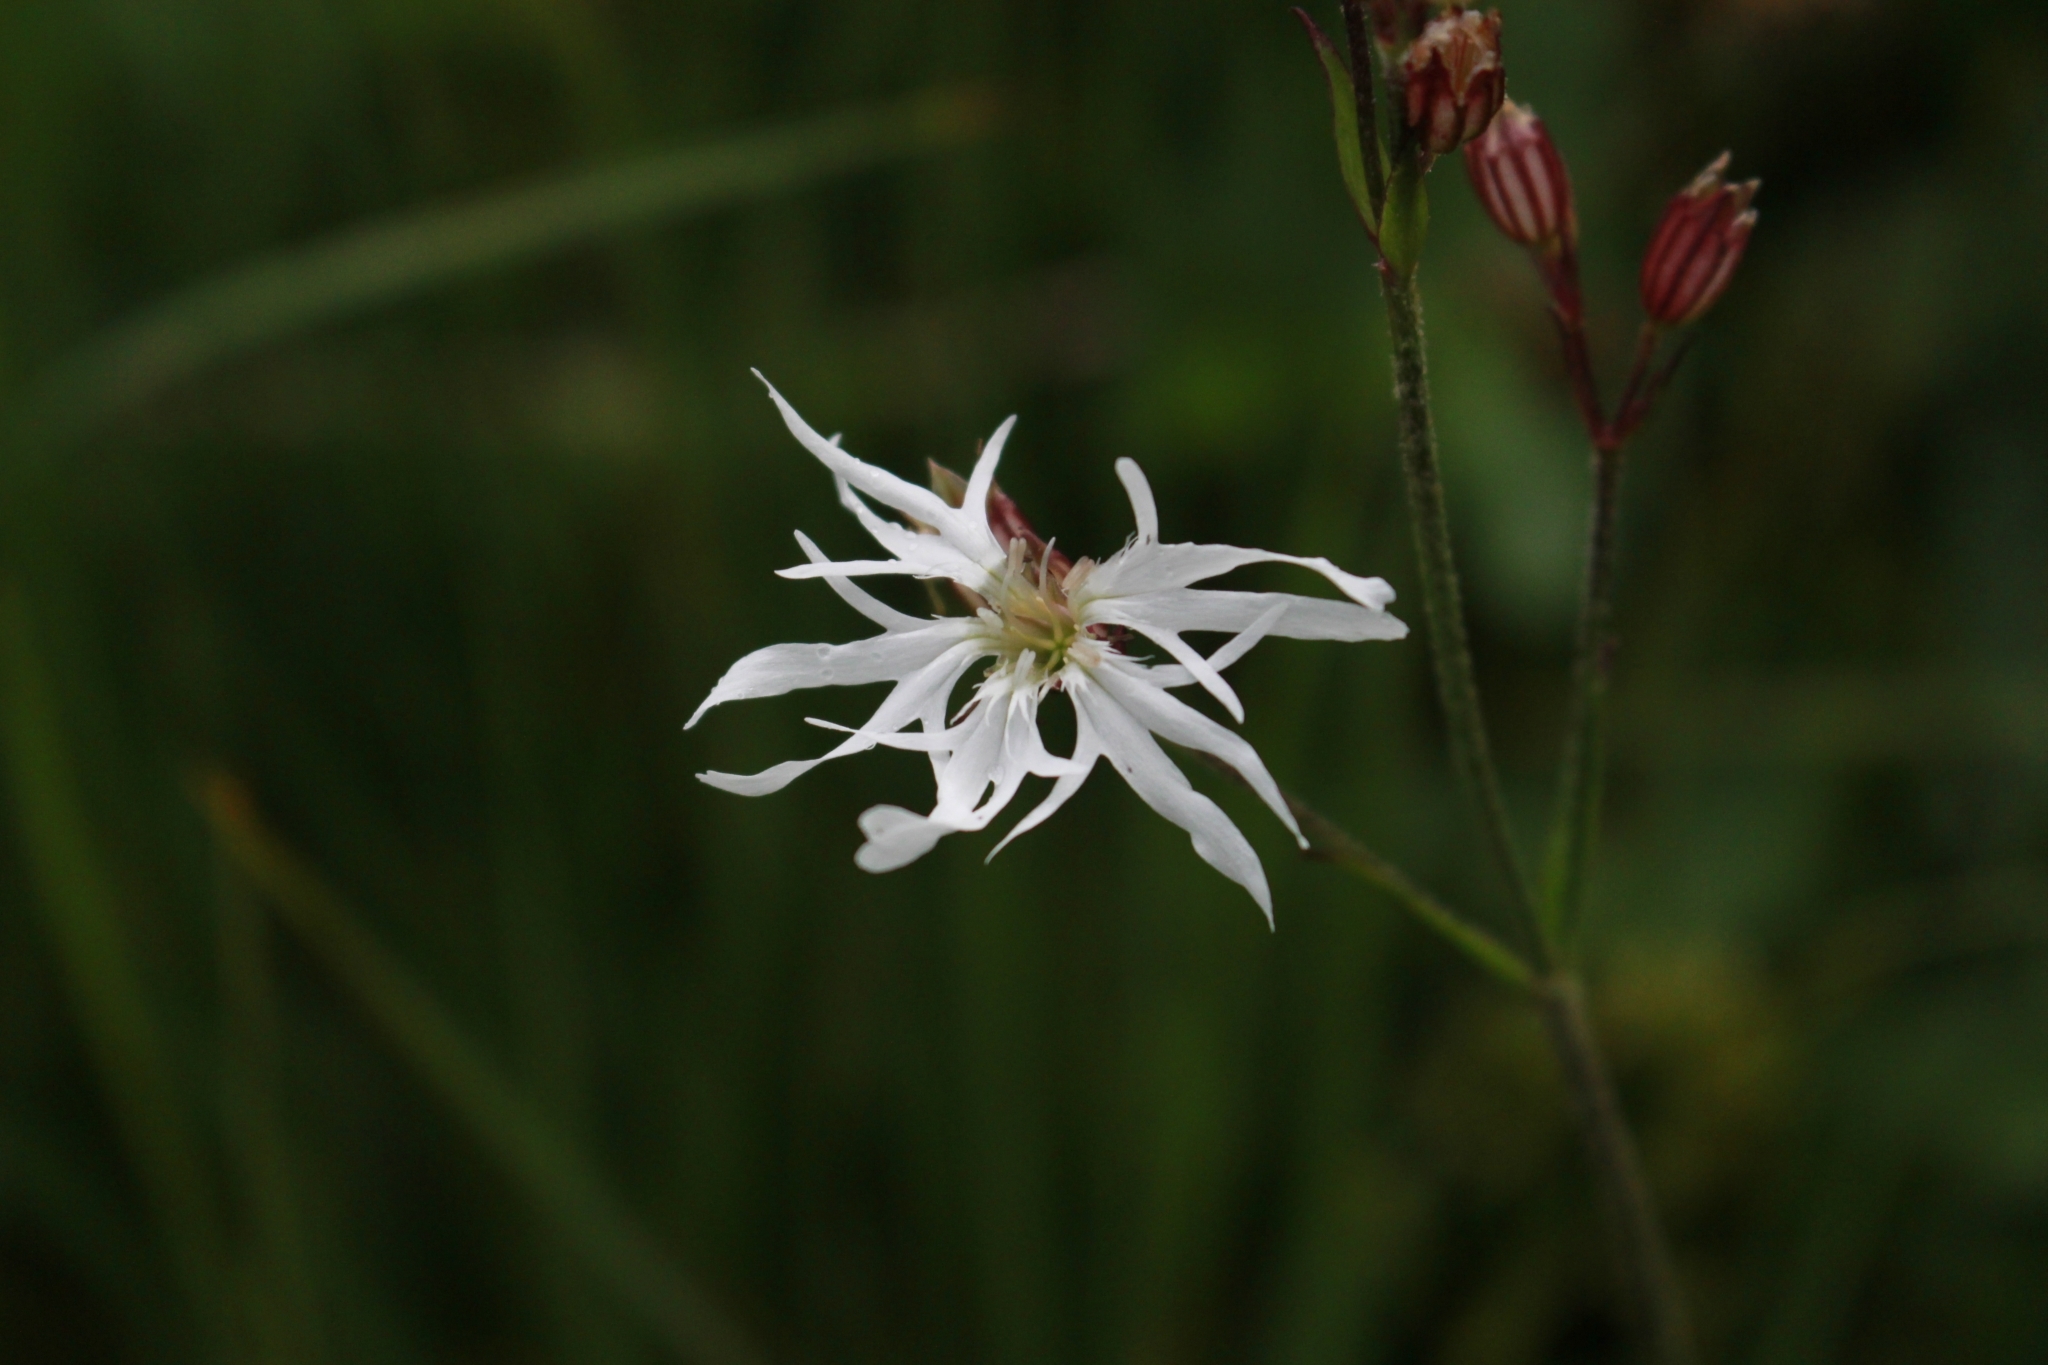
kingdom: Plantae
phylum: Tracheophyta
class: Magnoliopsida
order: Caryophyllales
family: Caryophyllaceae
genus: Silene
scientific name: Silene flos-cuculi
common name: Ragged-robin
